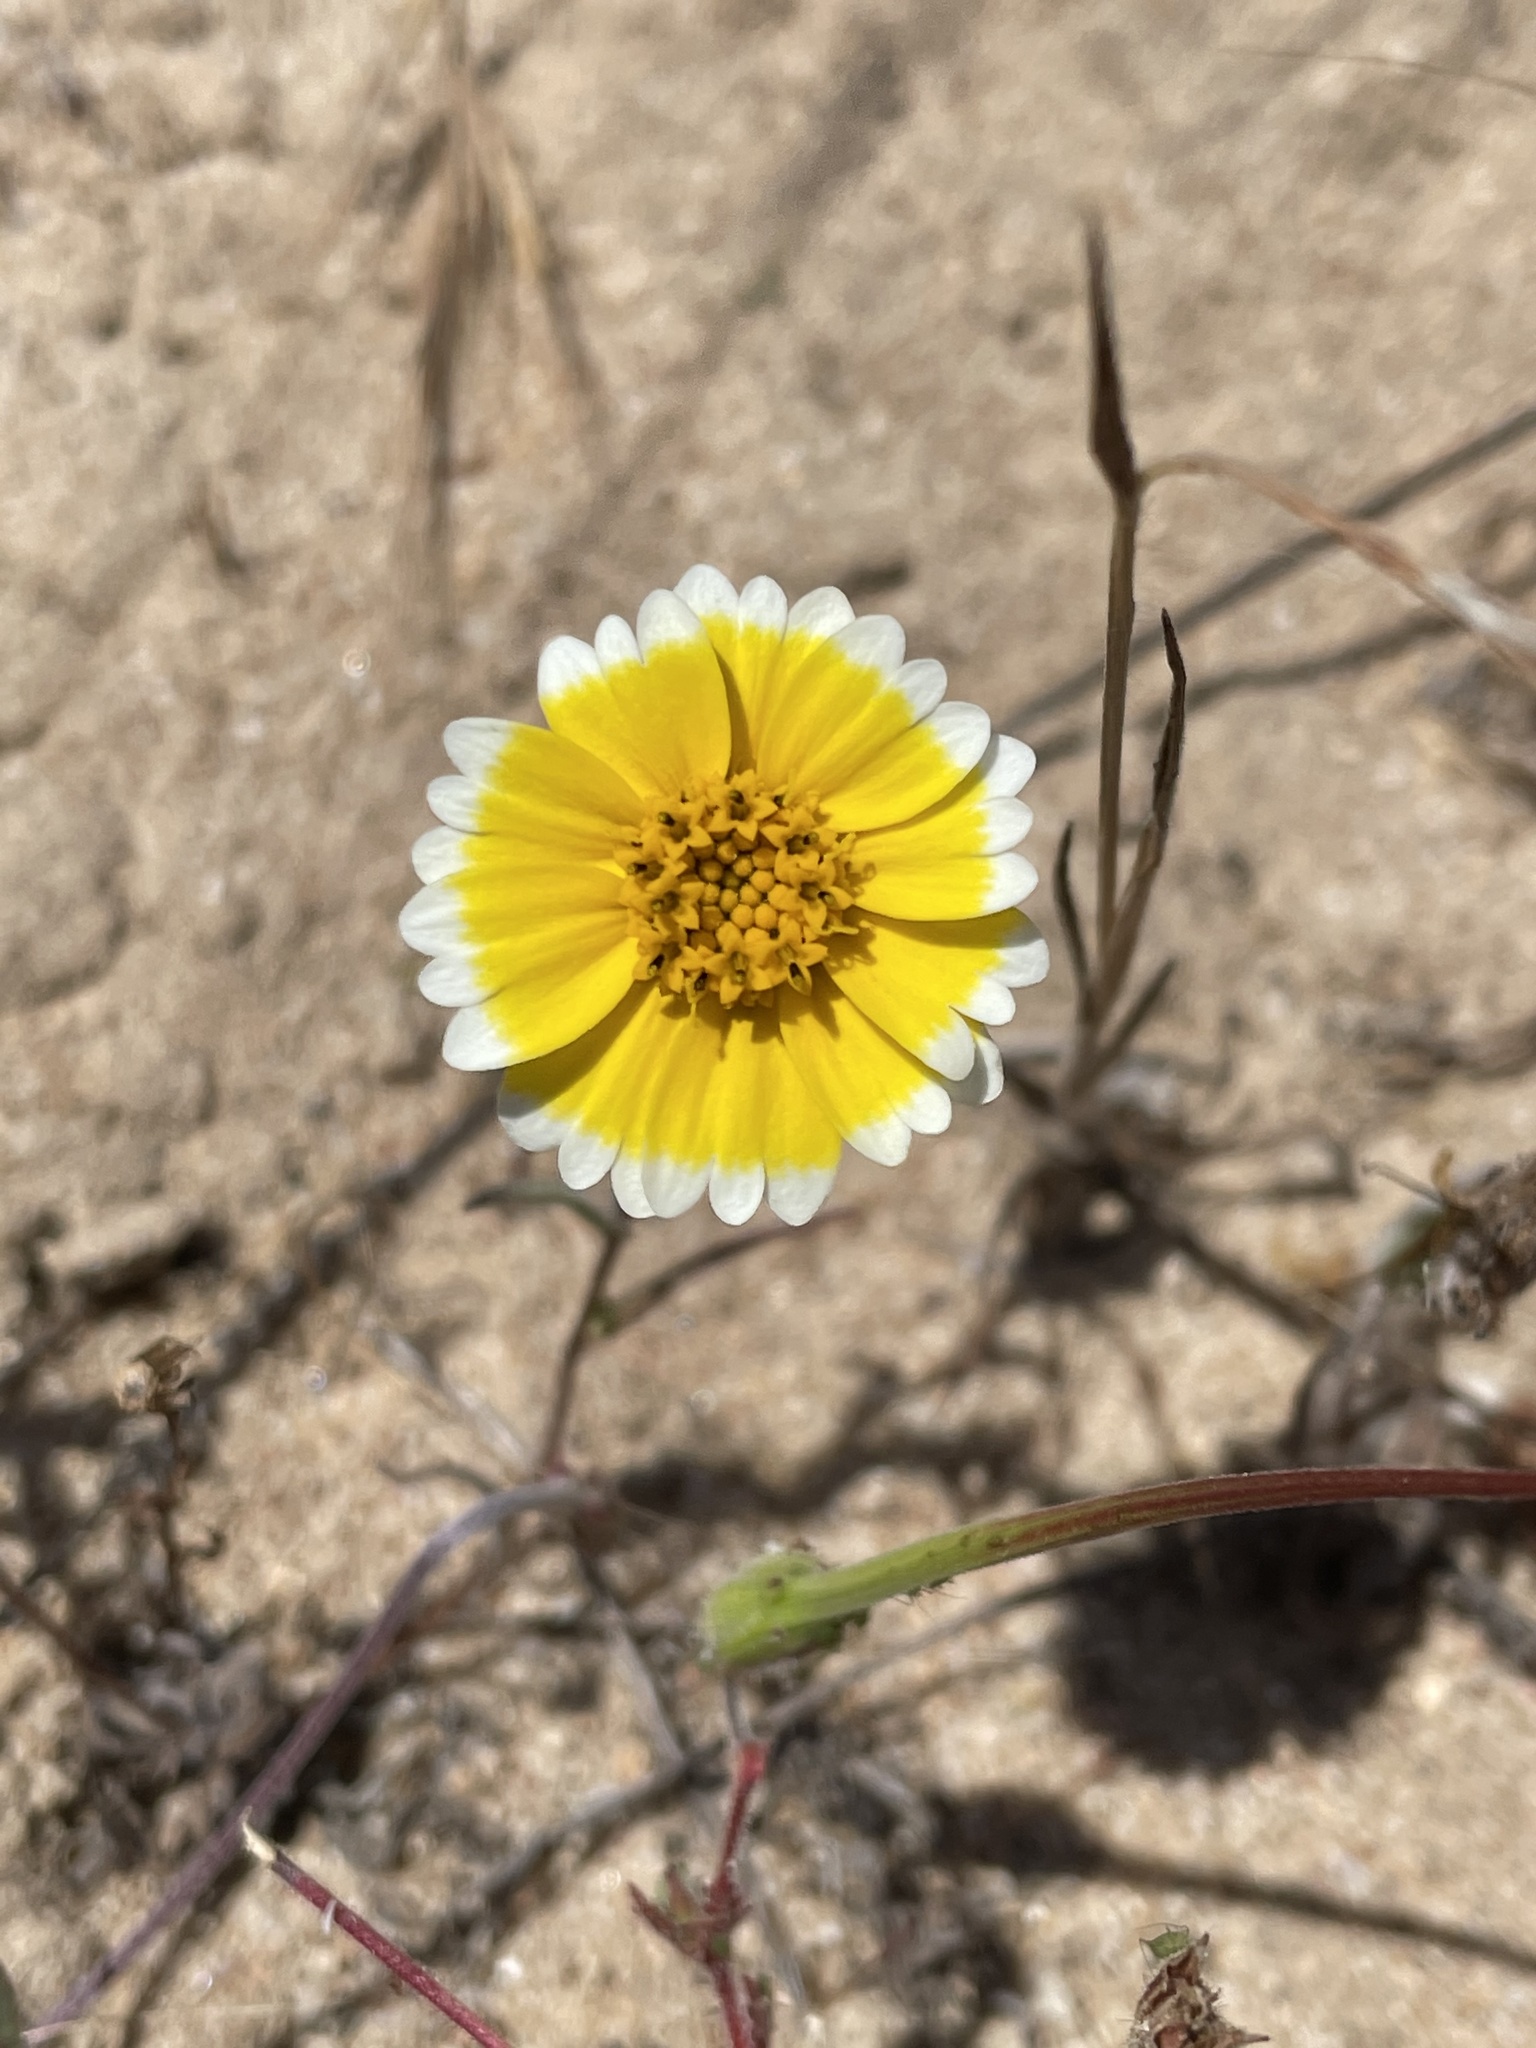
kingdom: Plantae
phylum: Tracheophyta
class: Magnoliopsida
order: Asterales
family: Asteraceae
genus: Layia
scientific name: Layia platyglossa
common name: Tidy-tips
